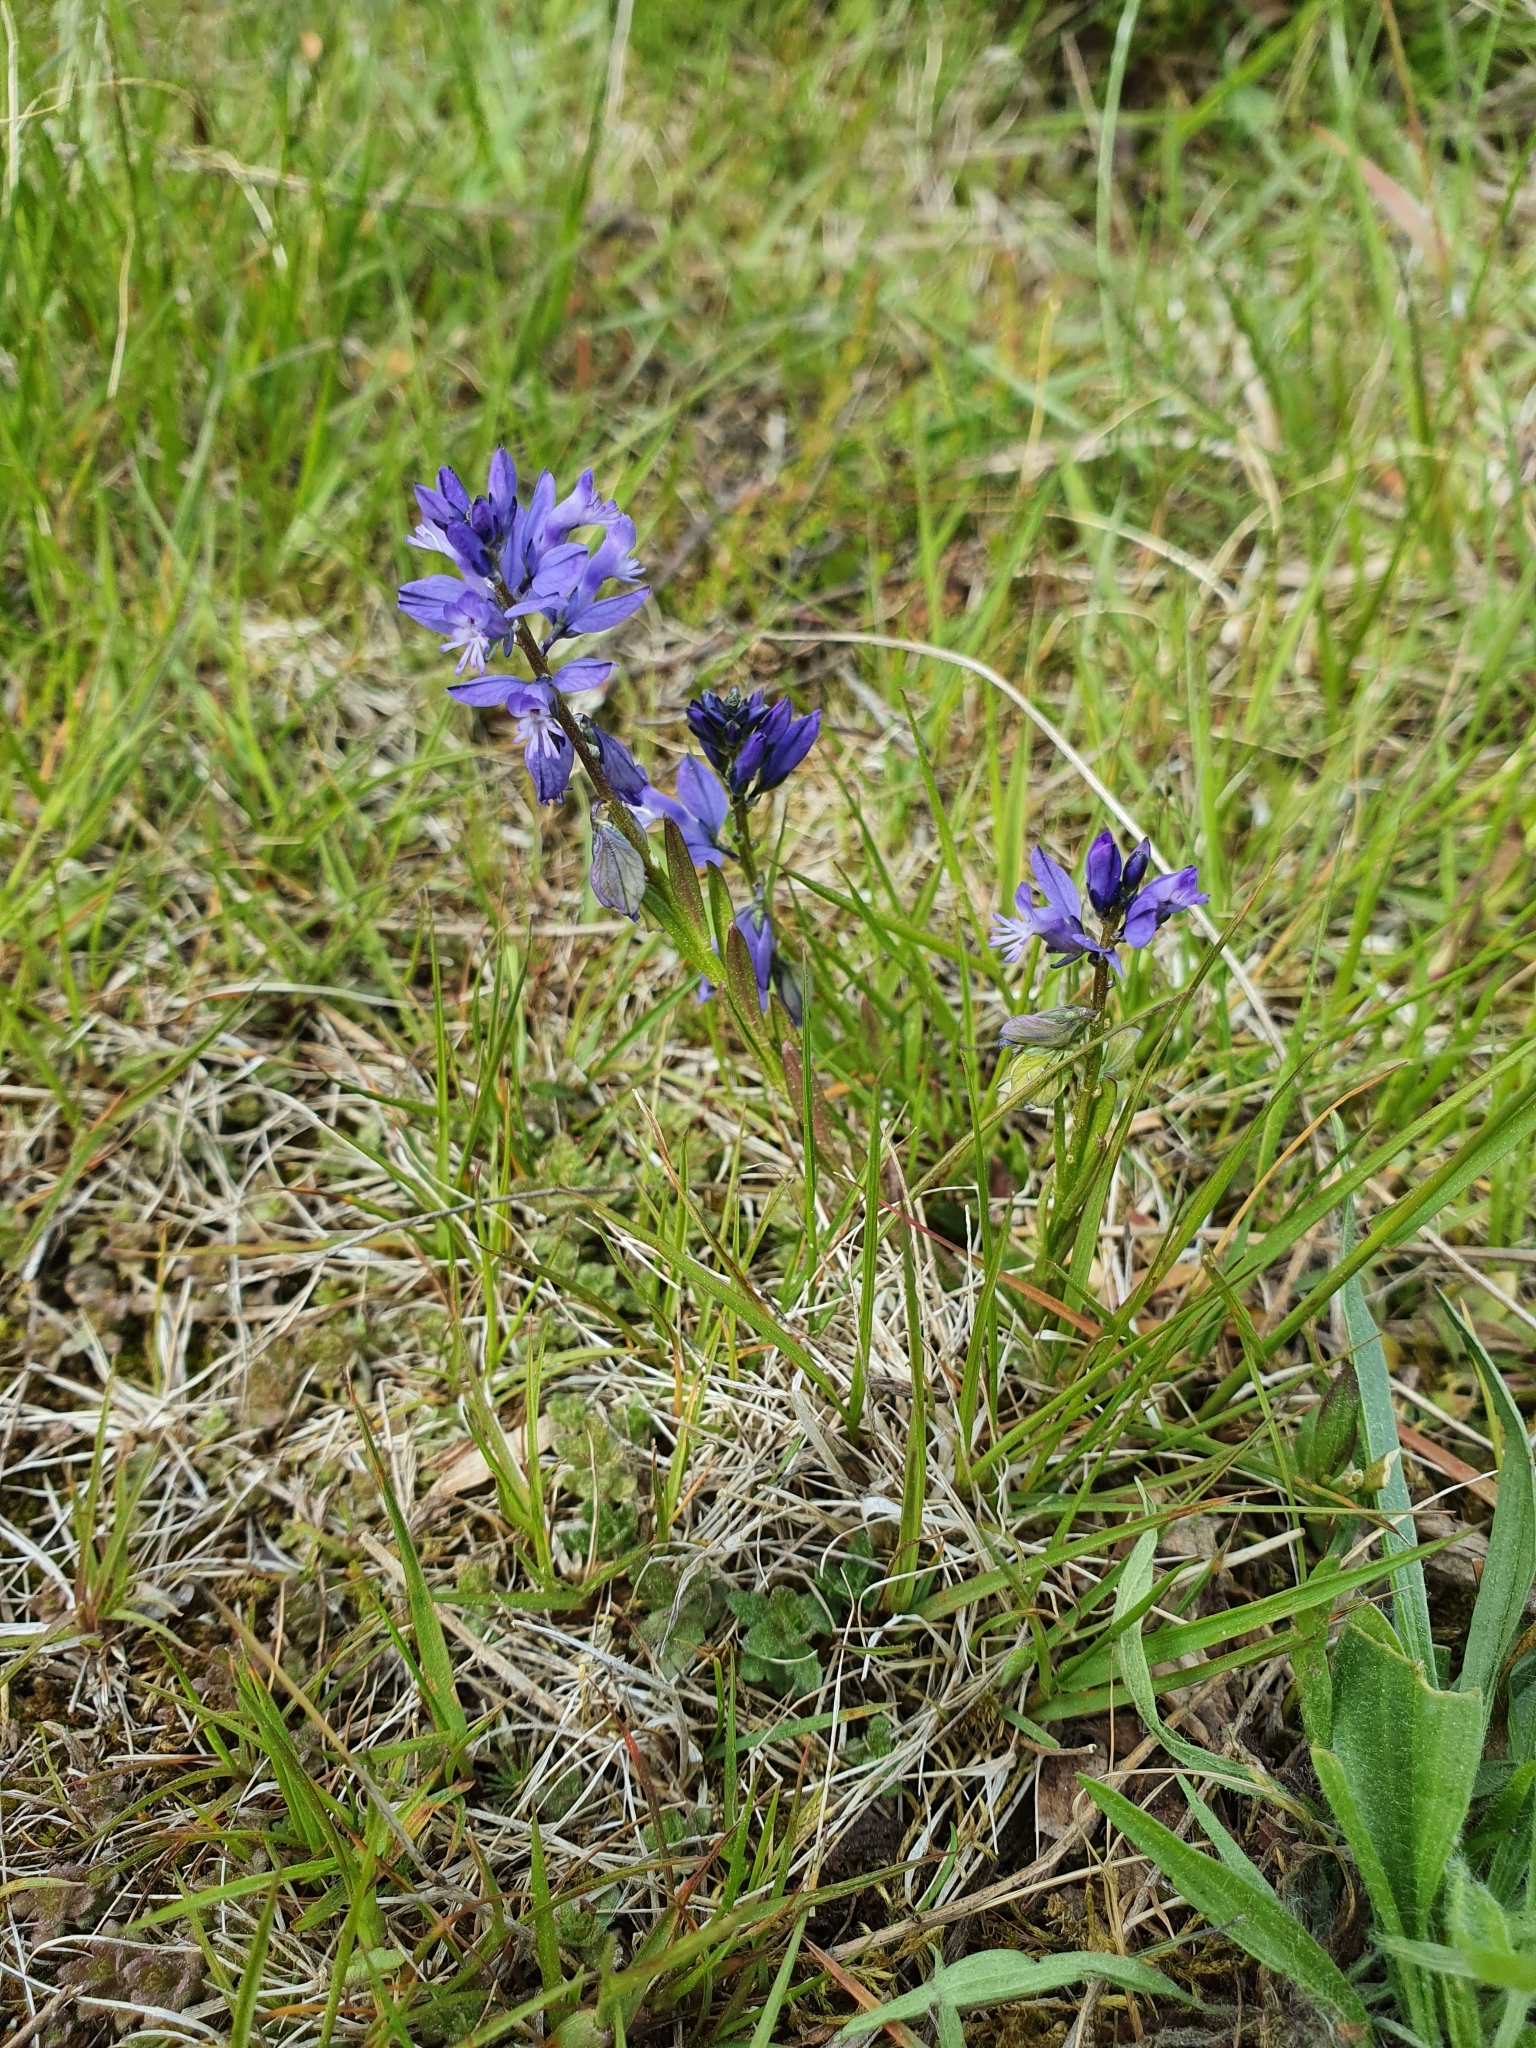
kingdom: Plantae
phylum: Tracheophyta
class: Magnoliopsida
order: Fabales
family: Polygalaceae
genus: Polygala
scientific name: Polygala vulgaris
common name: Common milkwort
